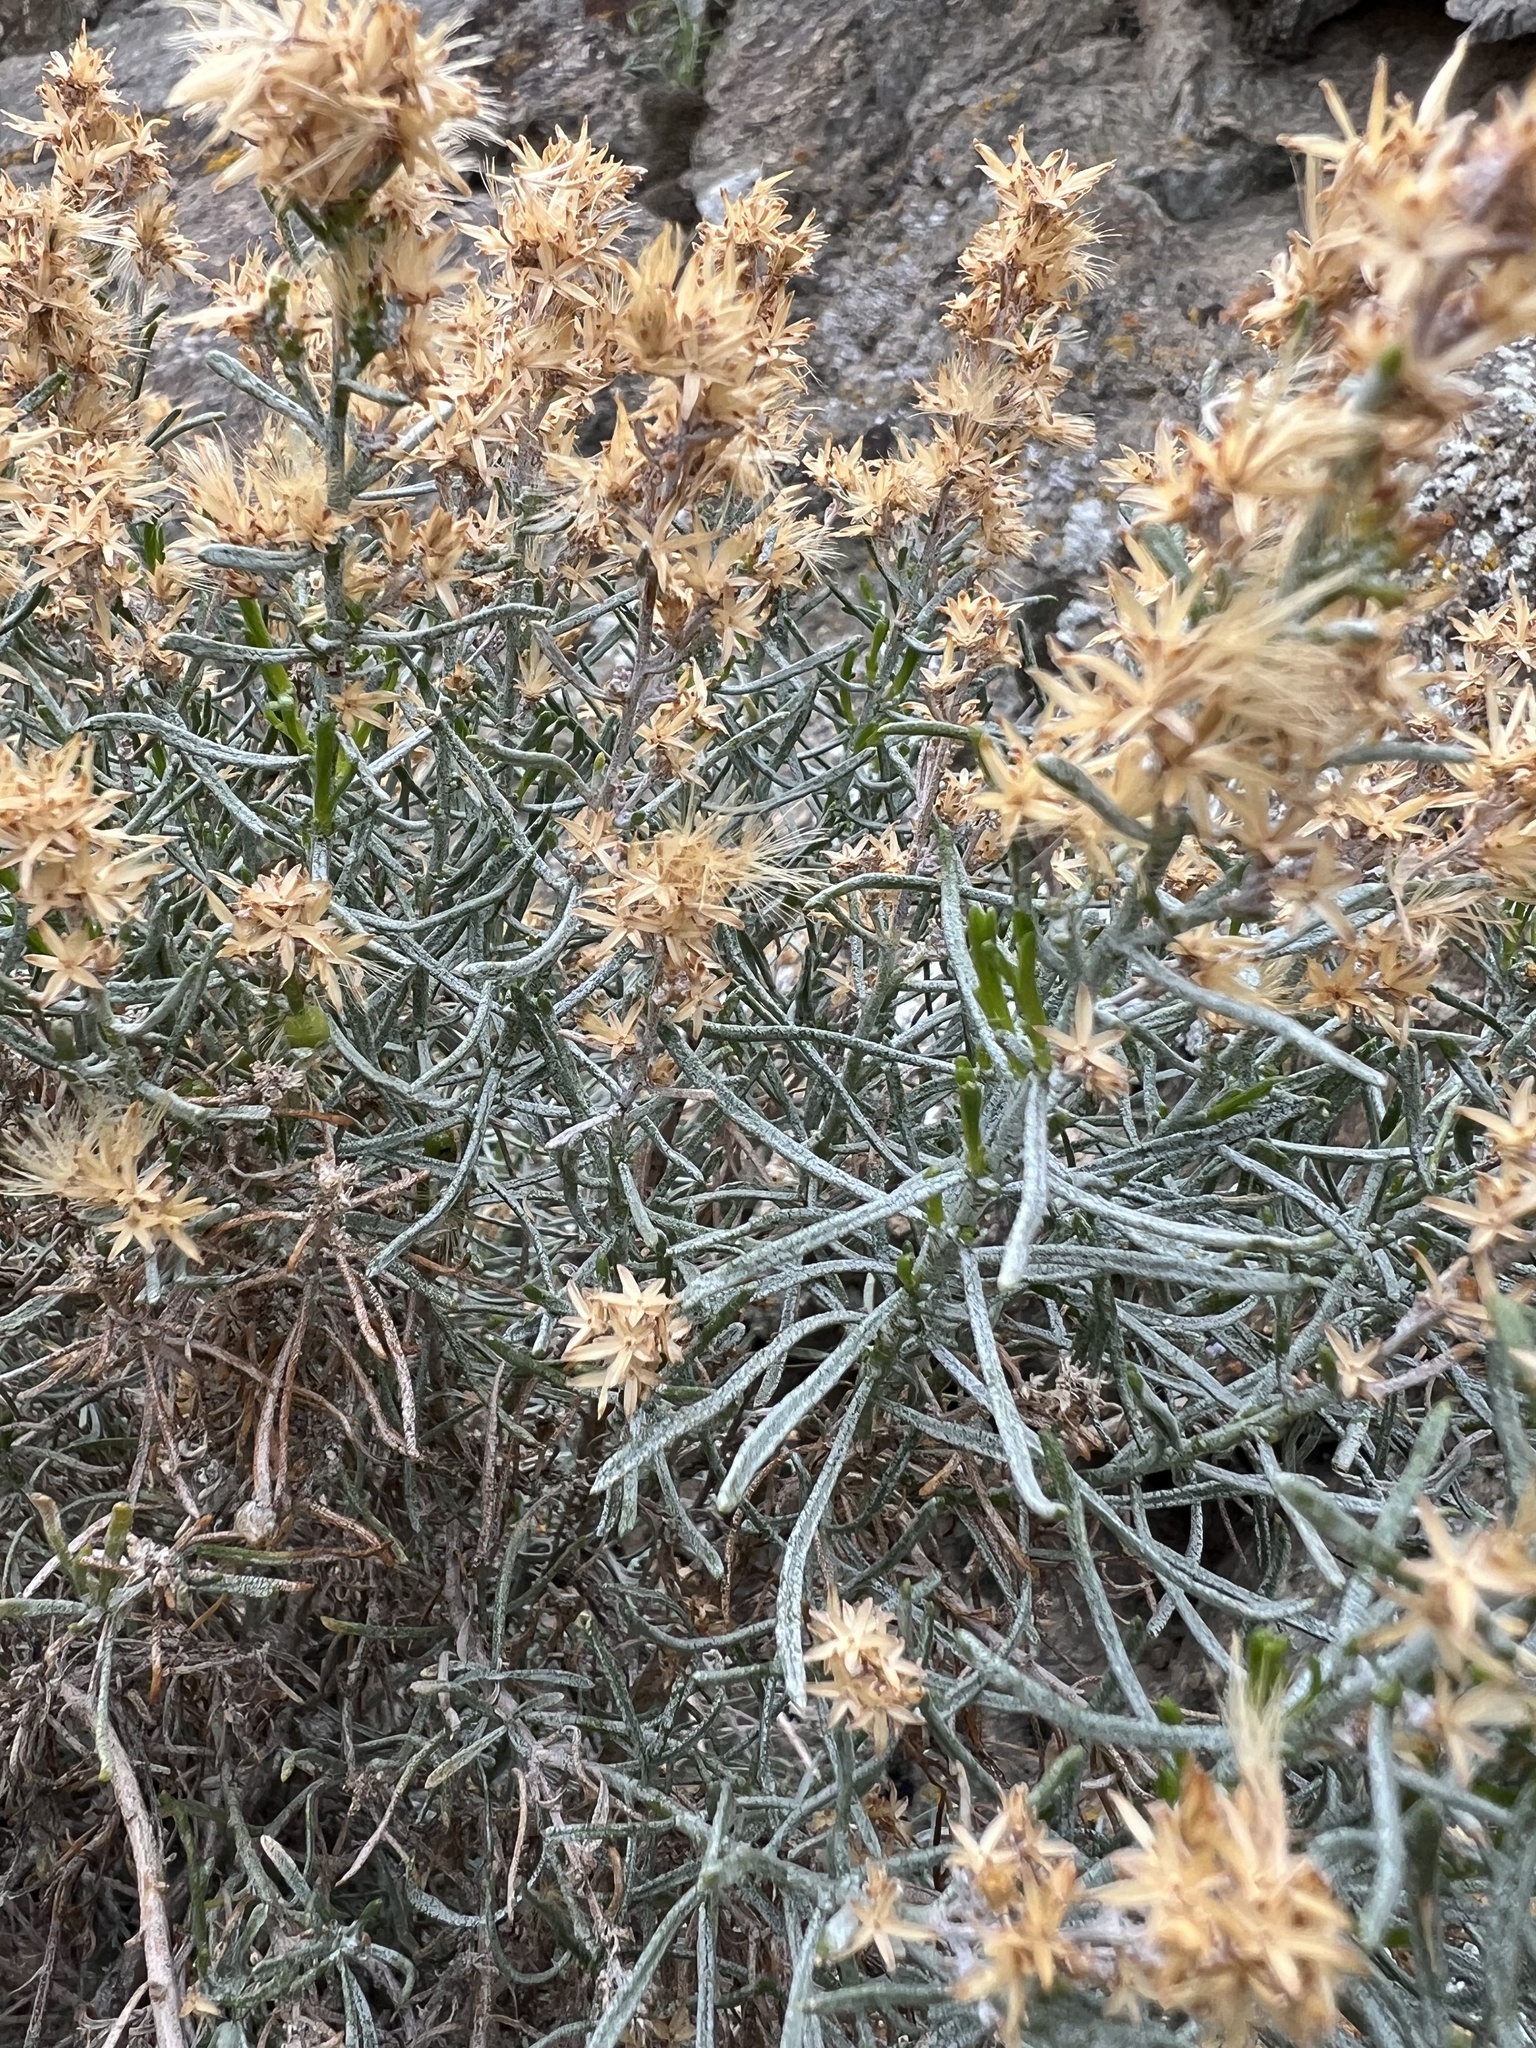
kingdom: Plantae
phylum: Tracheophyta
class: Magnoliopsida
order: Asterales
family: Asteraceae
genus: Ericameria
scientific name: Ericameria teretifolia
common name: Round-leaf rabbitbrush
